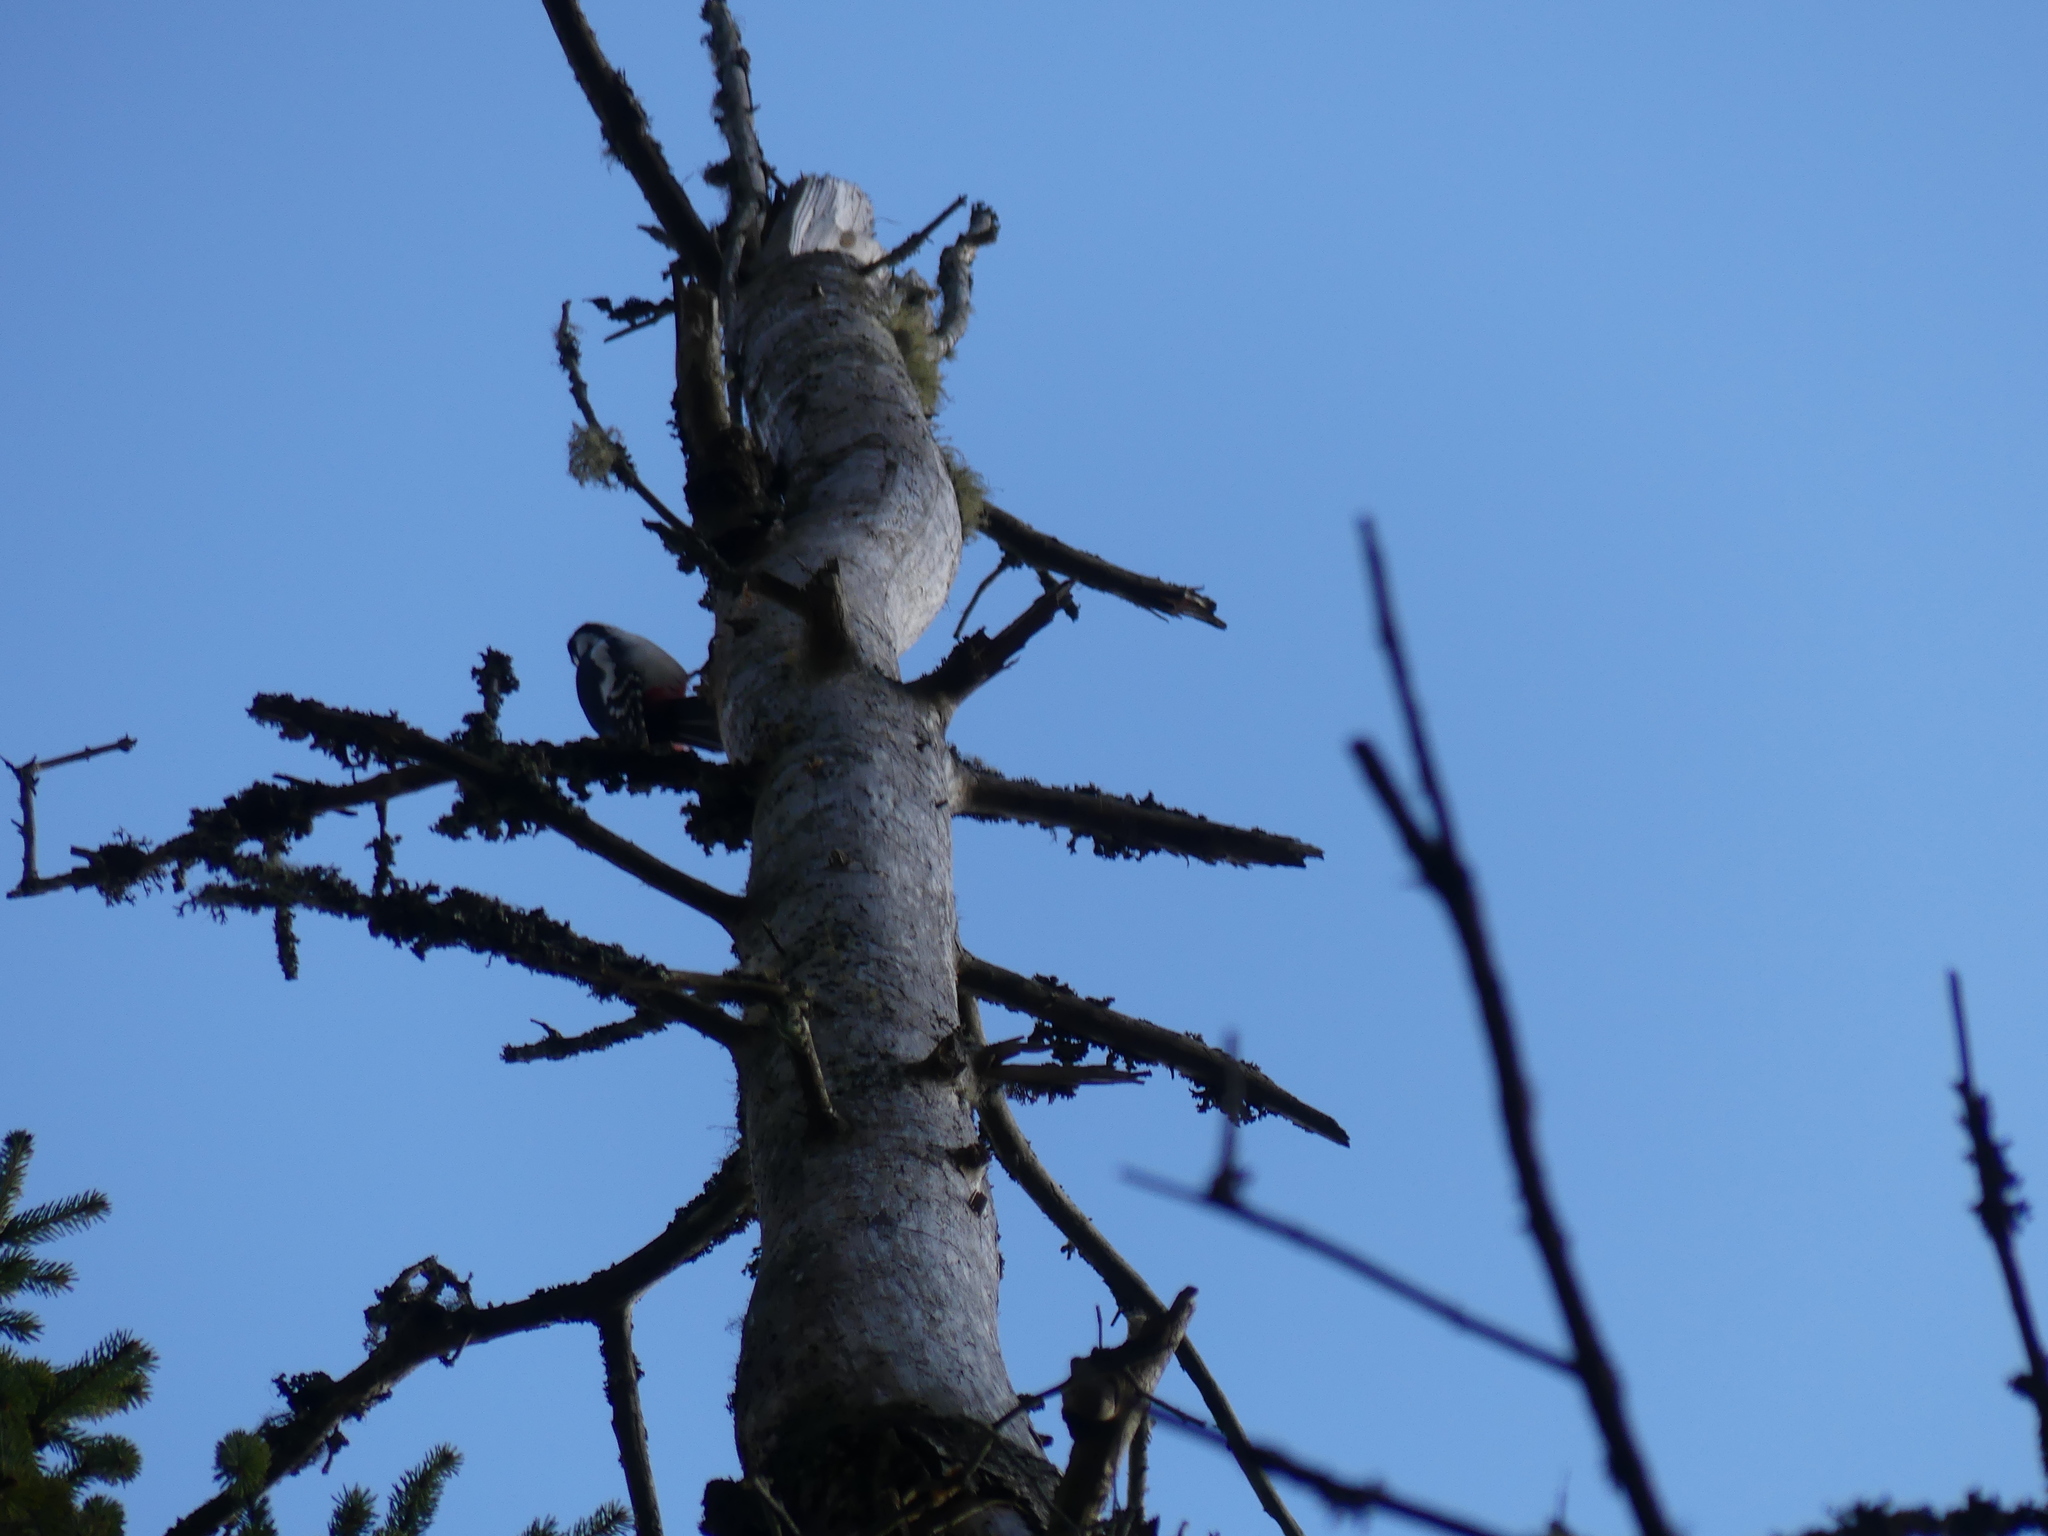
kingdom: Animalia
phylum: Chordata
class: Aves
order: Piciformes
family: Picidae
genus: Dendrocopos
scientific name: Dendrocopos major
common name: Great spotted woodpecker
